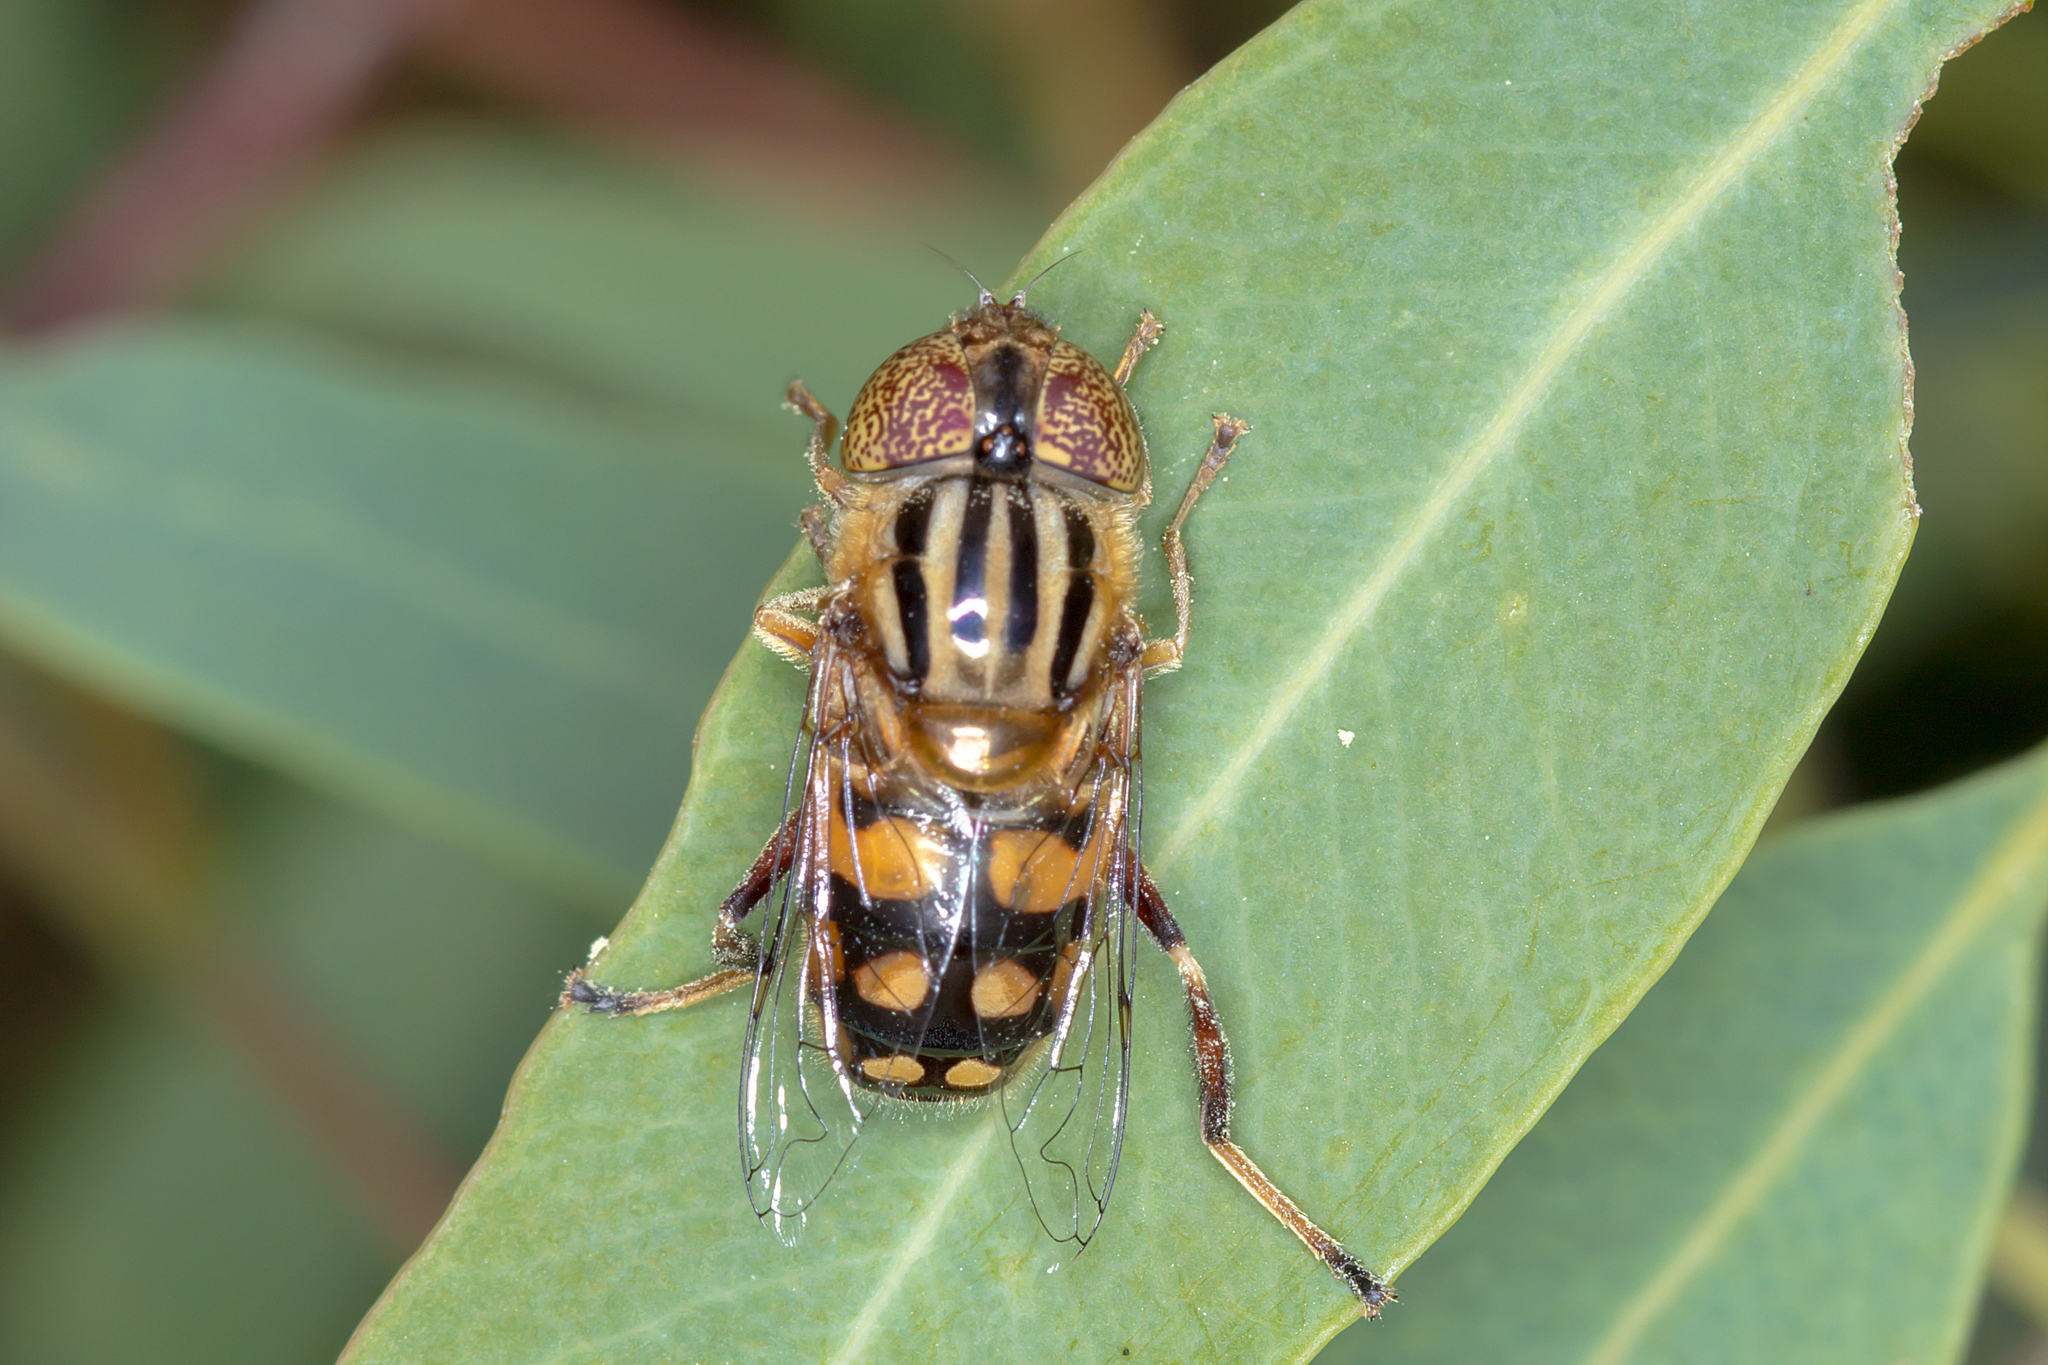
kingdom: Animalia
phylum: Arthropoda
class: Insecta
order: Diptera
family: Syrphidae
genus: Eristalinus
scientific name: Eristalinus punctulatus
